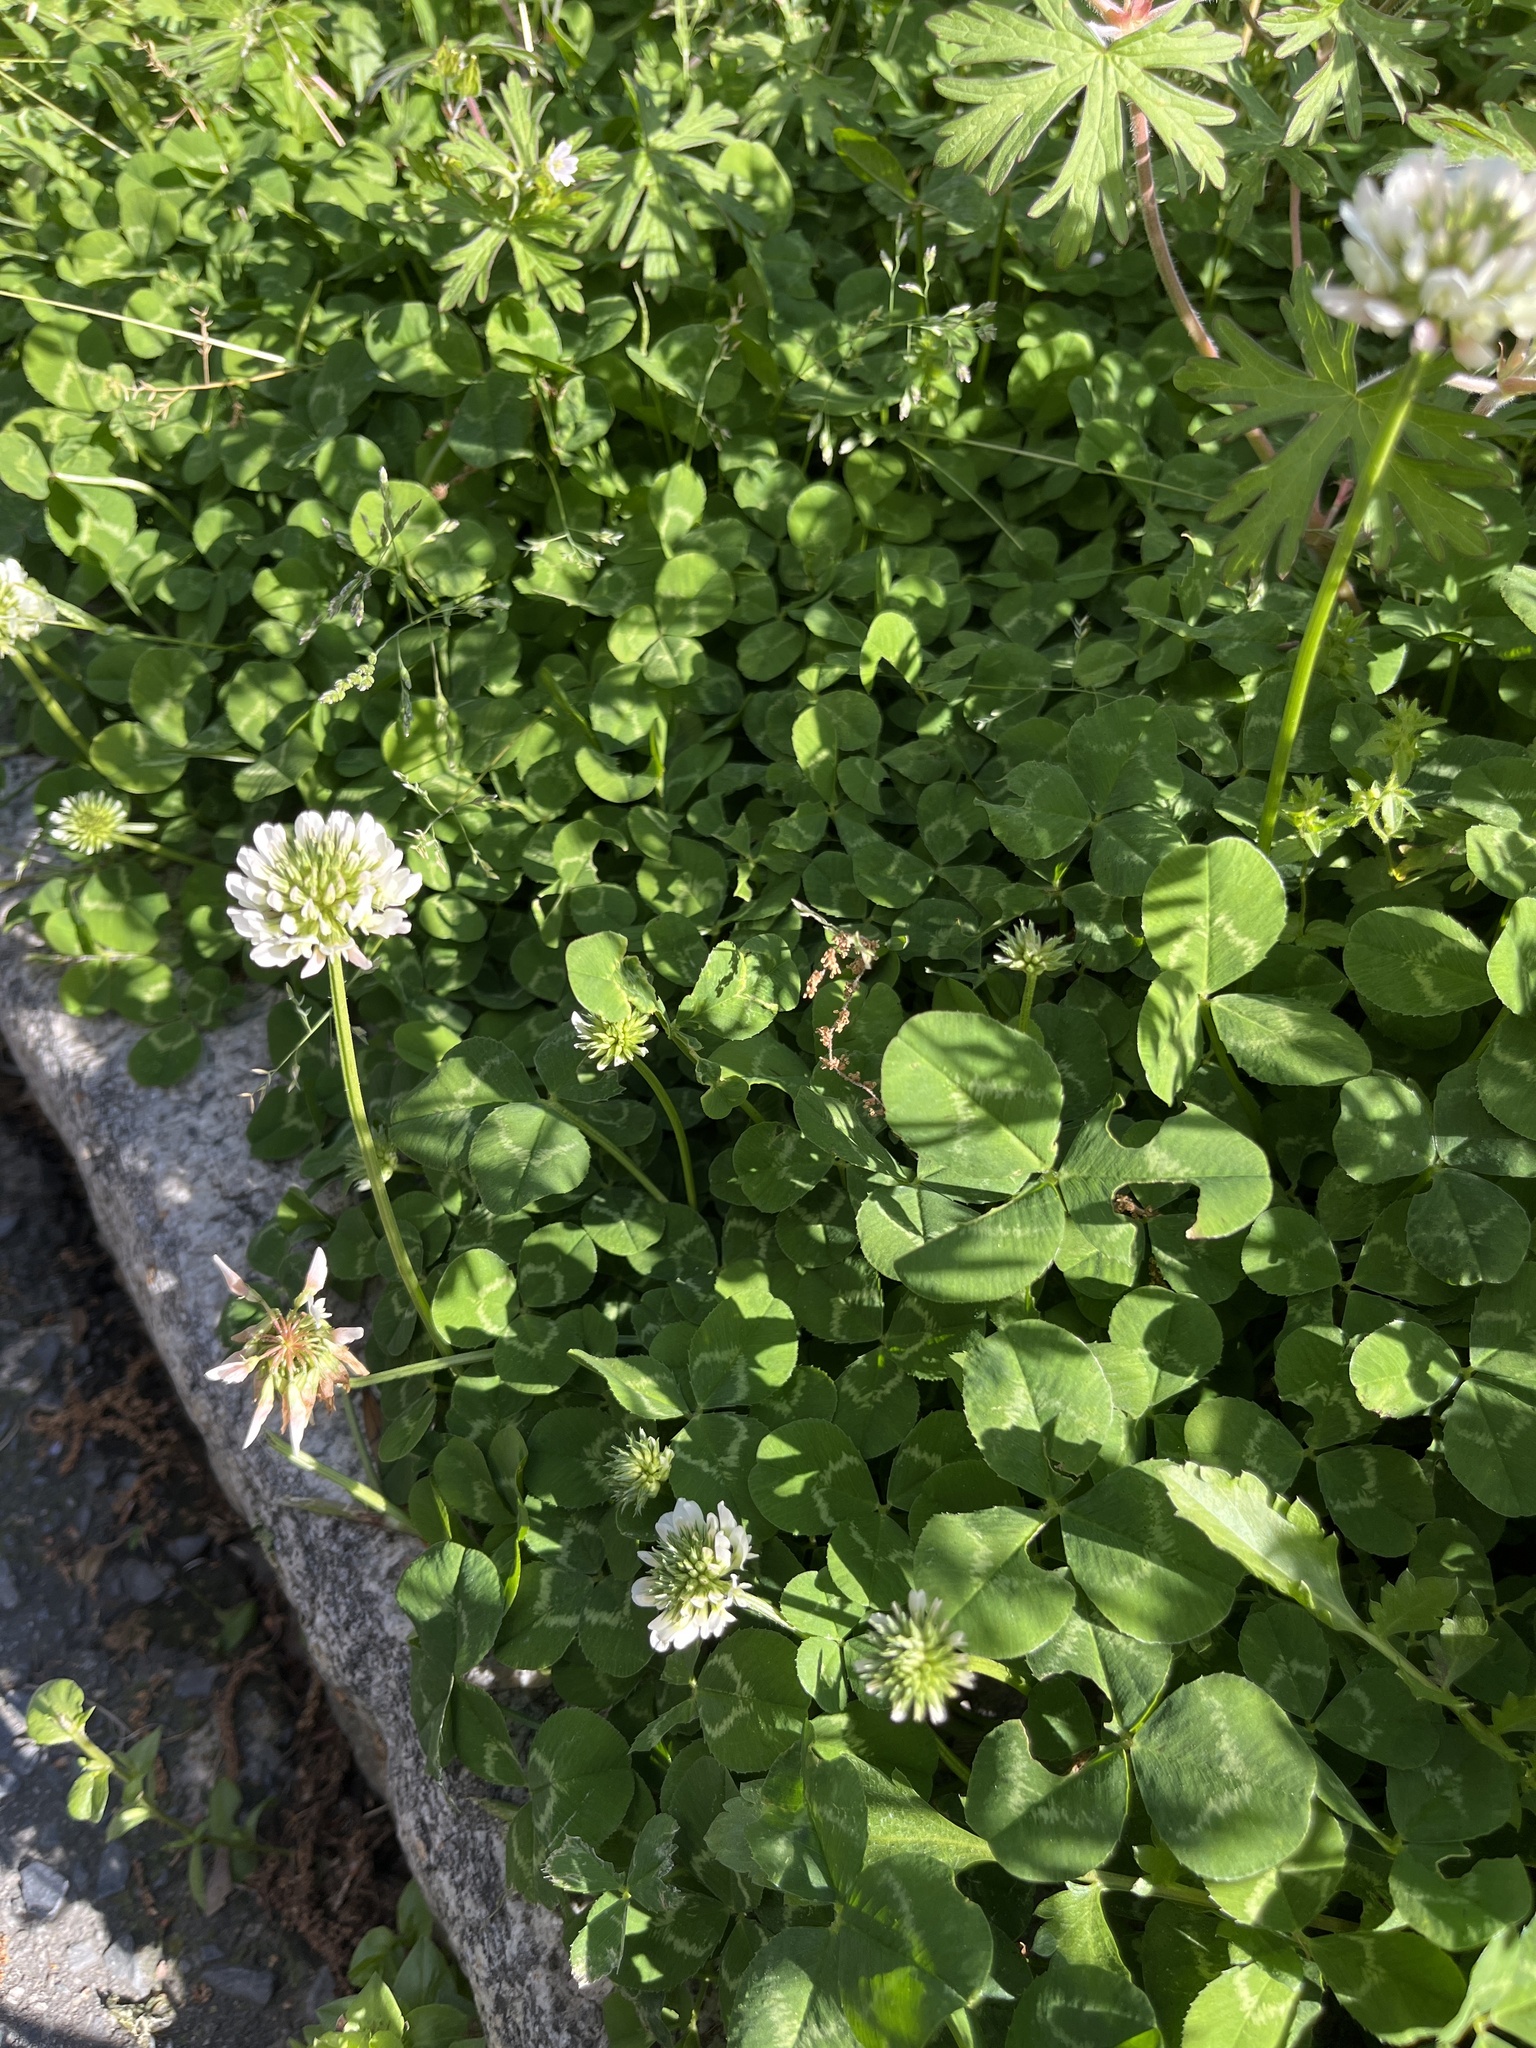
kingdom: Plantae
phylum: Tracheophyta
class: Magnoliopsida
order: Fabales
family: Fabaceae
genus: Trifolium
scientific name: Trifolium repens
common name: White clover
